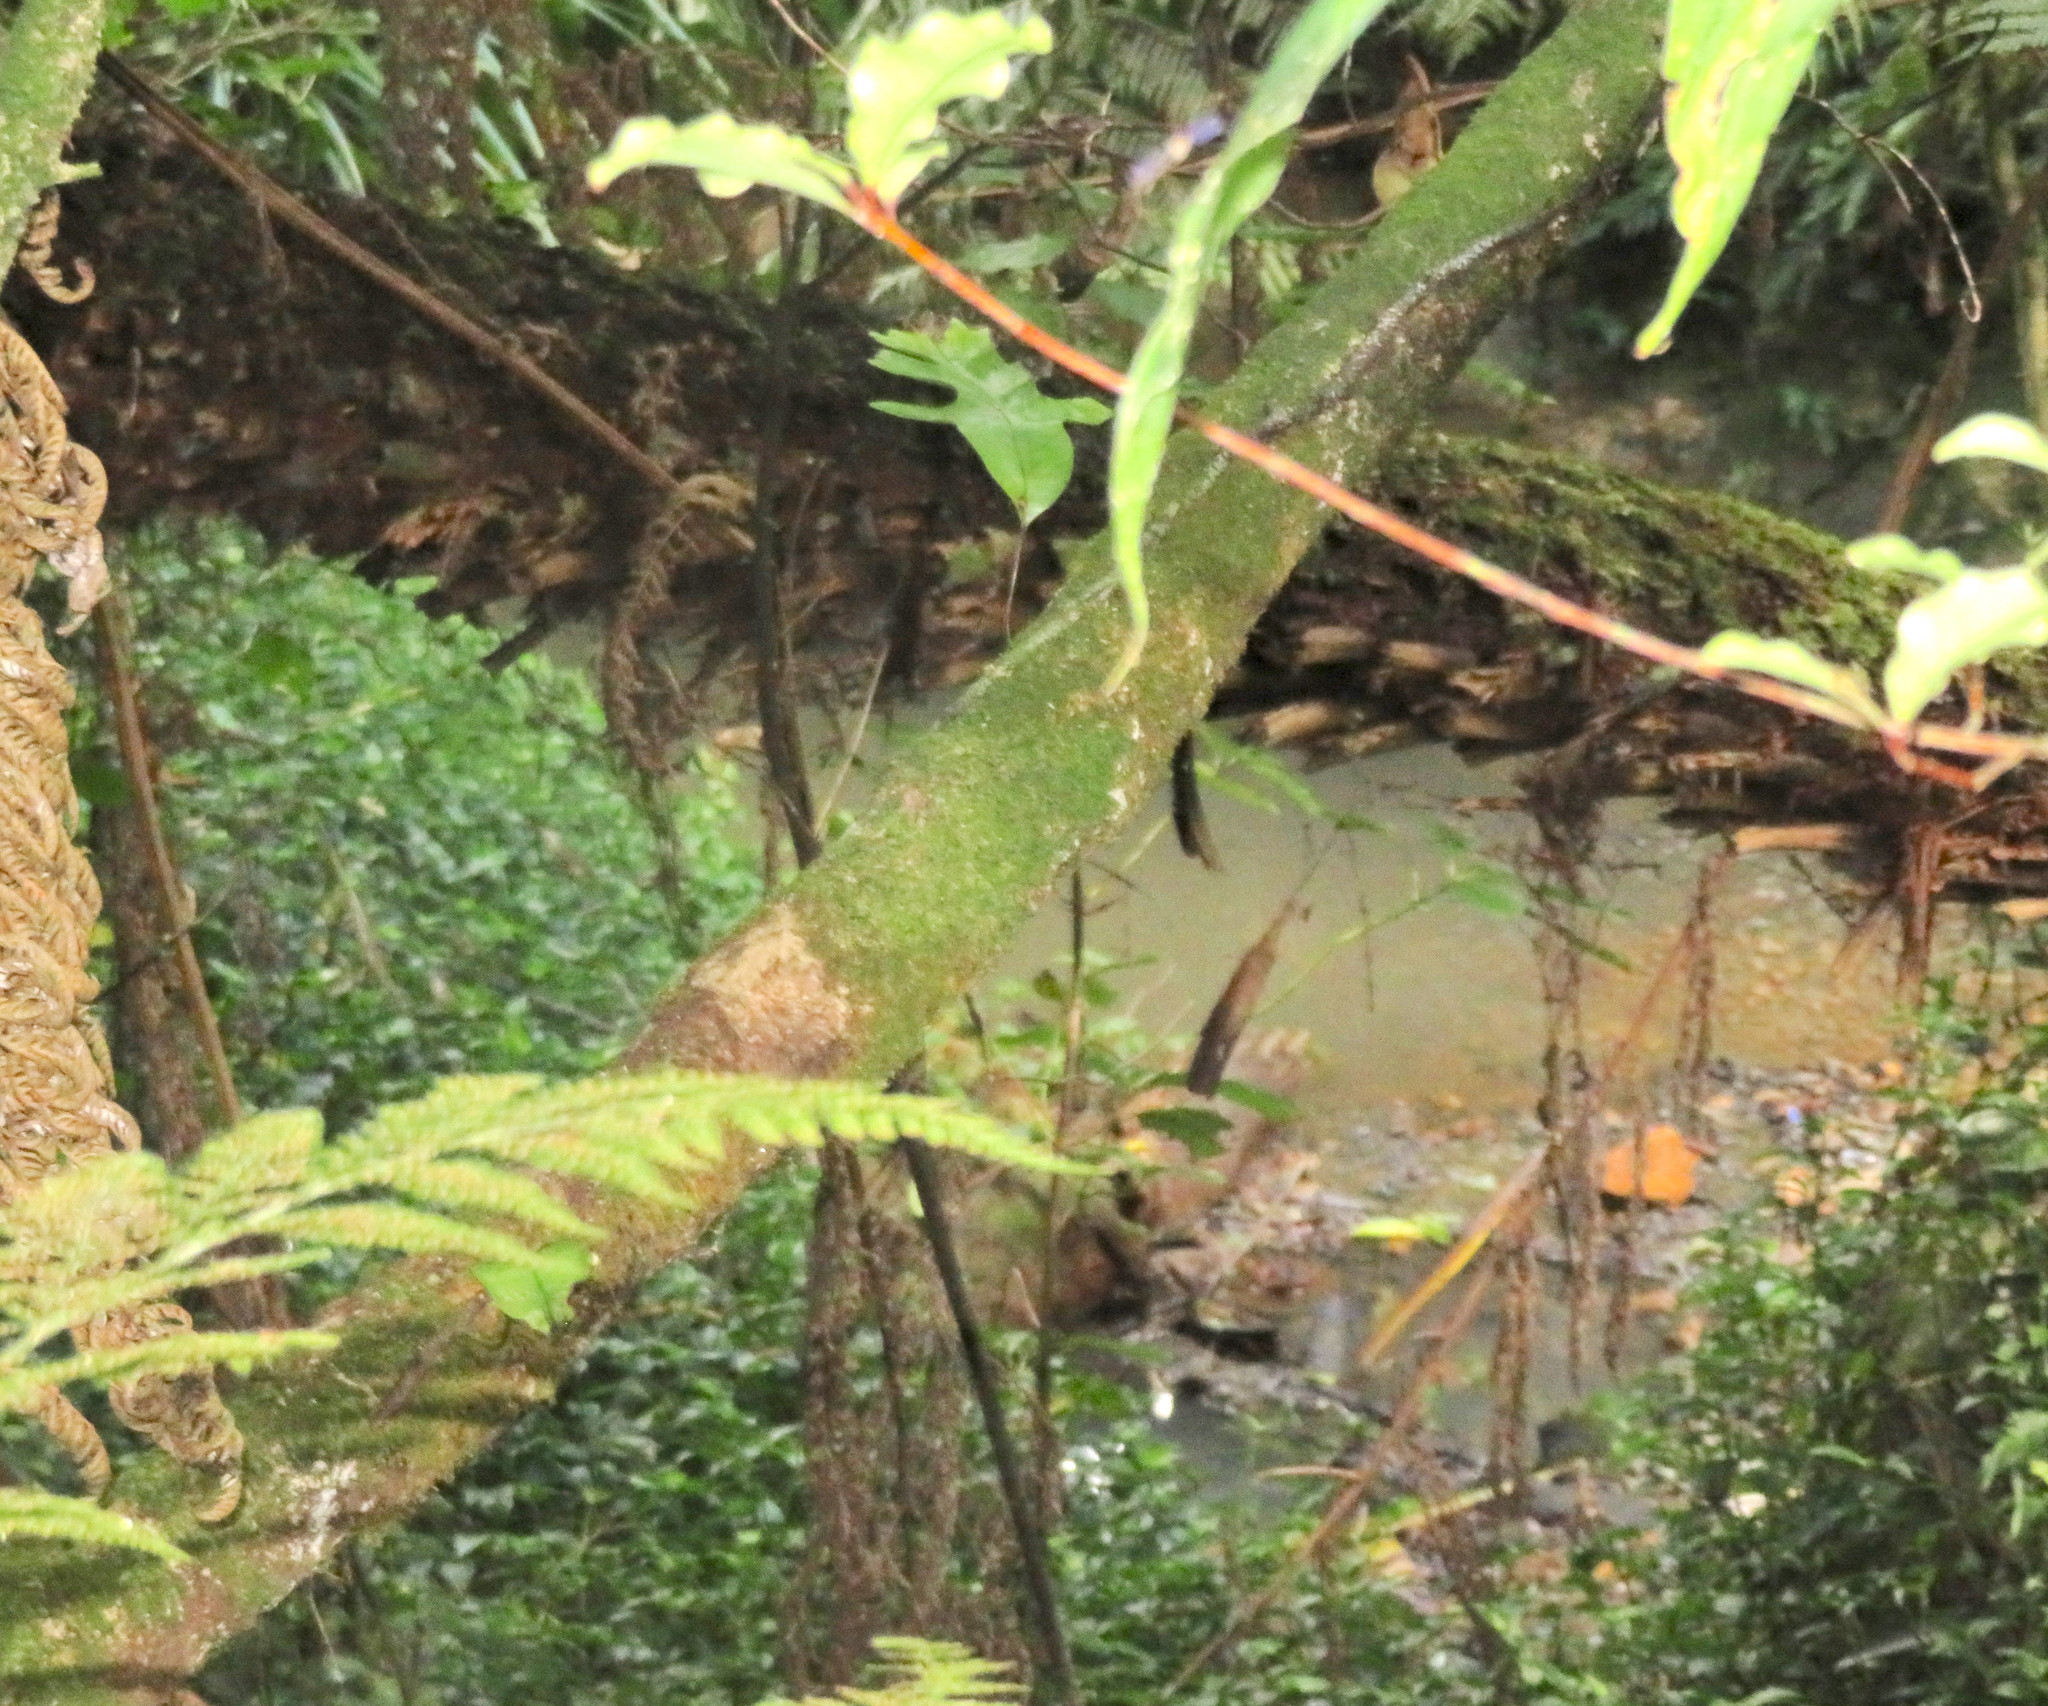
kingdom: Plantae
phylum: Tracheophyta
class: Polypodiopsida
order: Polypodiales
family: Polypodiaceae
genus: Lecanopteris
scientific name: Lecanopteris pustulata
